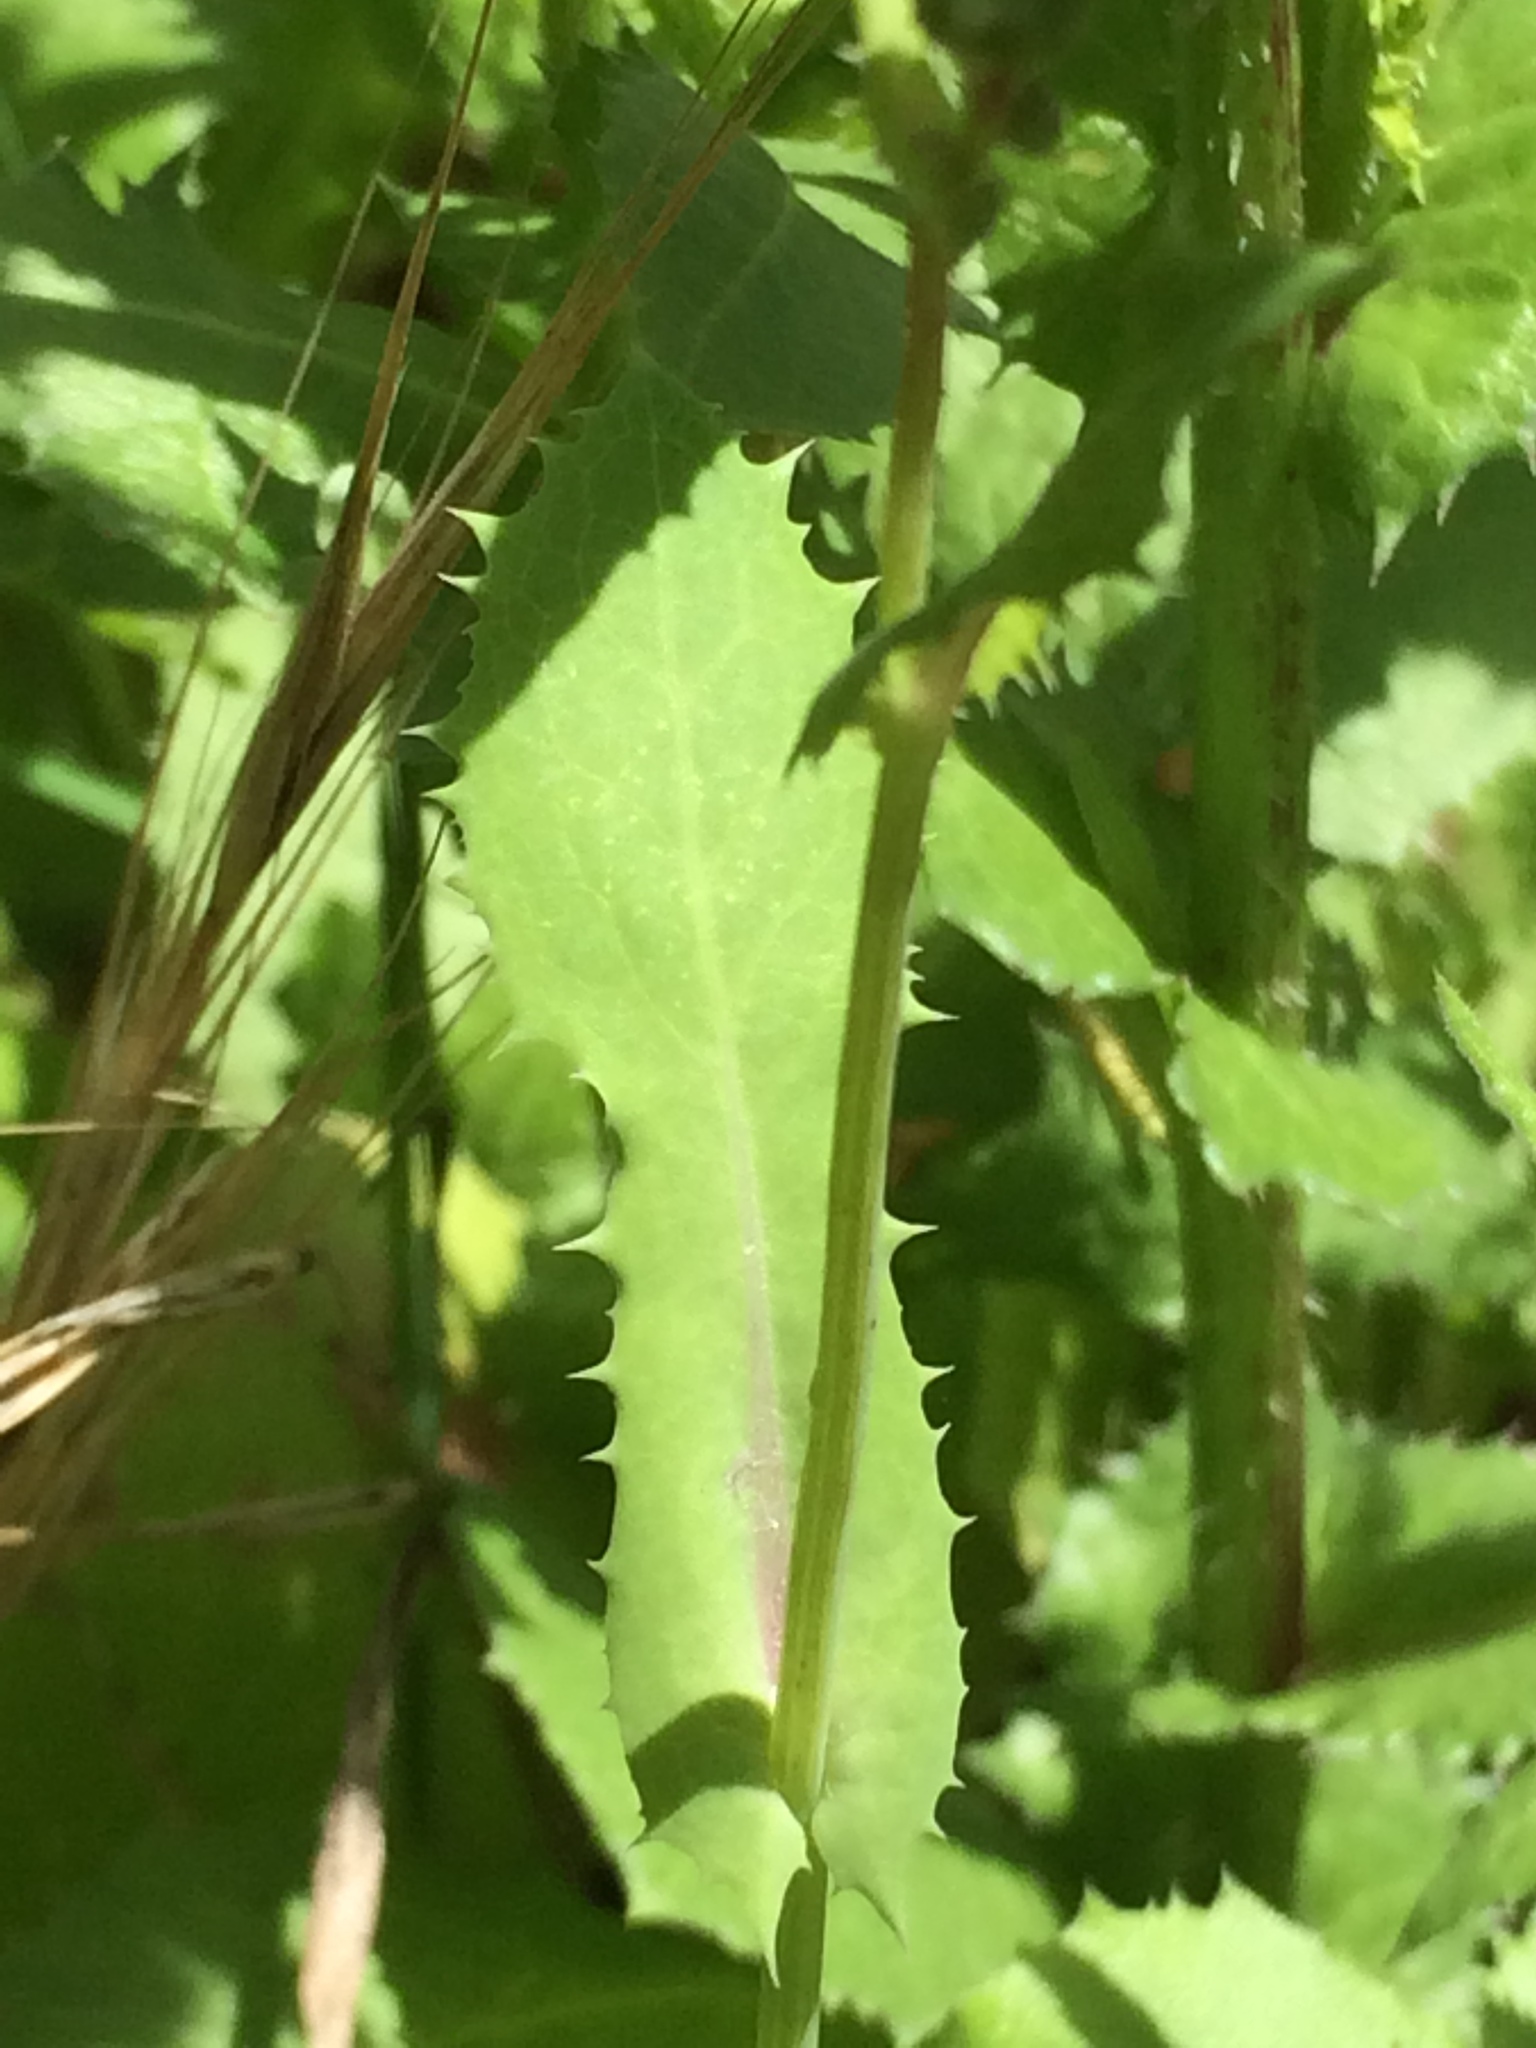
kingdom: Plantae
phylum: Tracheophyta
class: Magnoliopsida
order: Asterales
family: Asteraceae
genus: Urospermum
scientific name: Urospermum picroides
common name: False hawkbit
